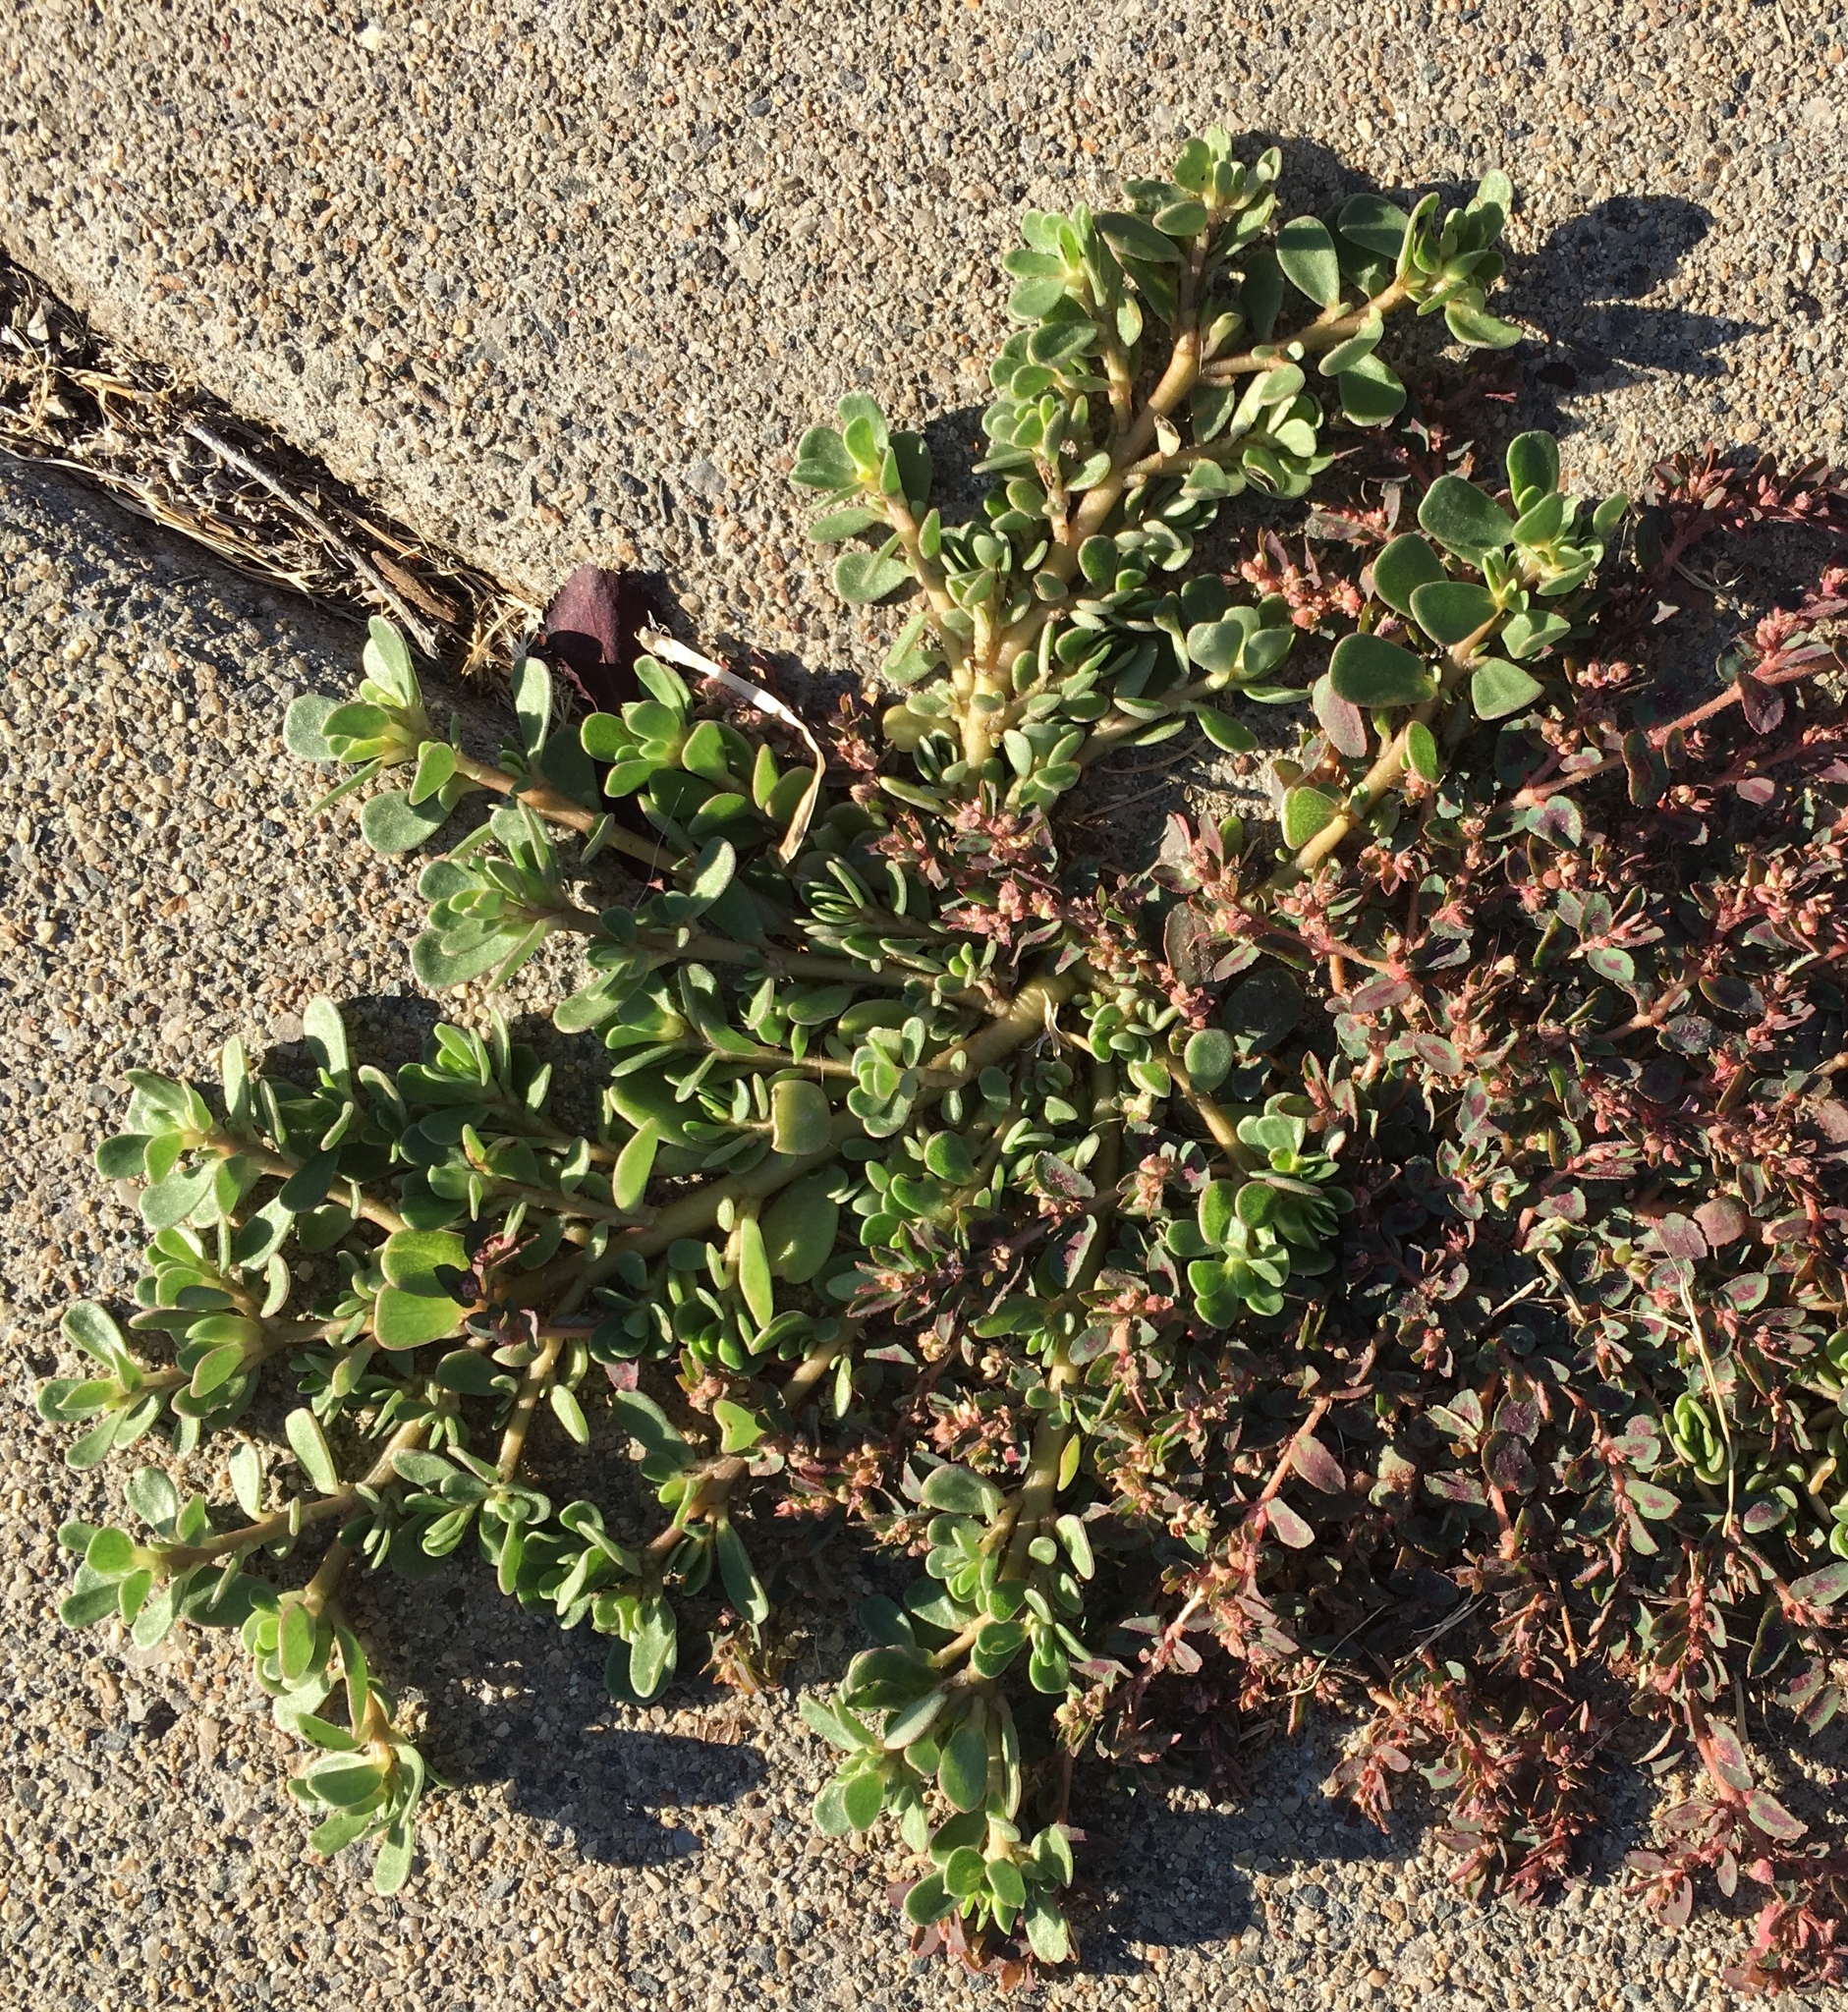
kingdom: Plantae
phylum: Tracheophyta
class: Magnoliopsida
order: Caryophyllales
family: Portulacaceae
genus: Portulaca
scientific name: Portulaca oleracea
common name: Common purslane
